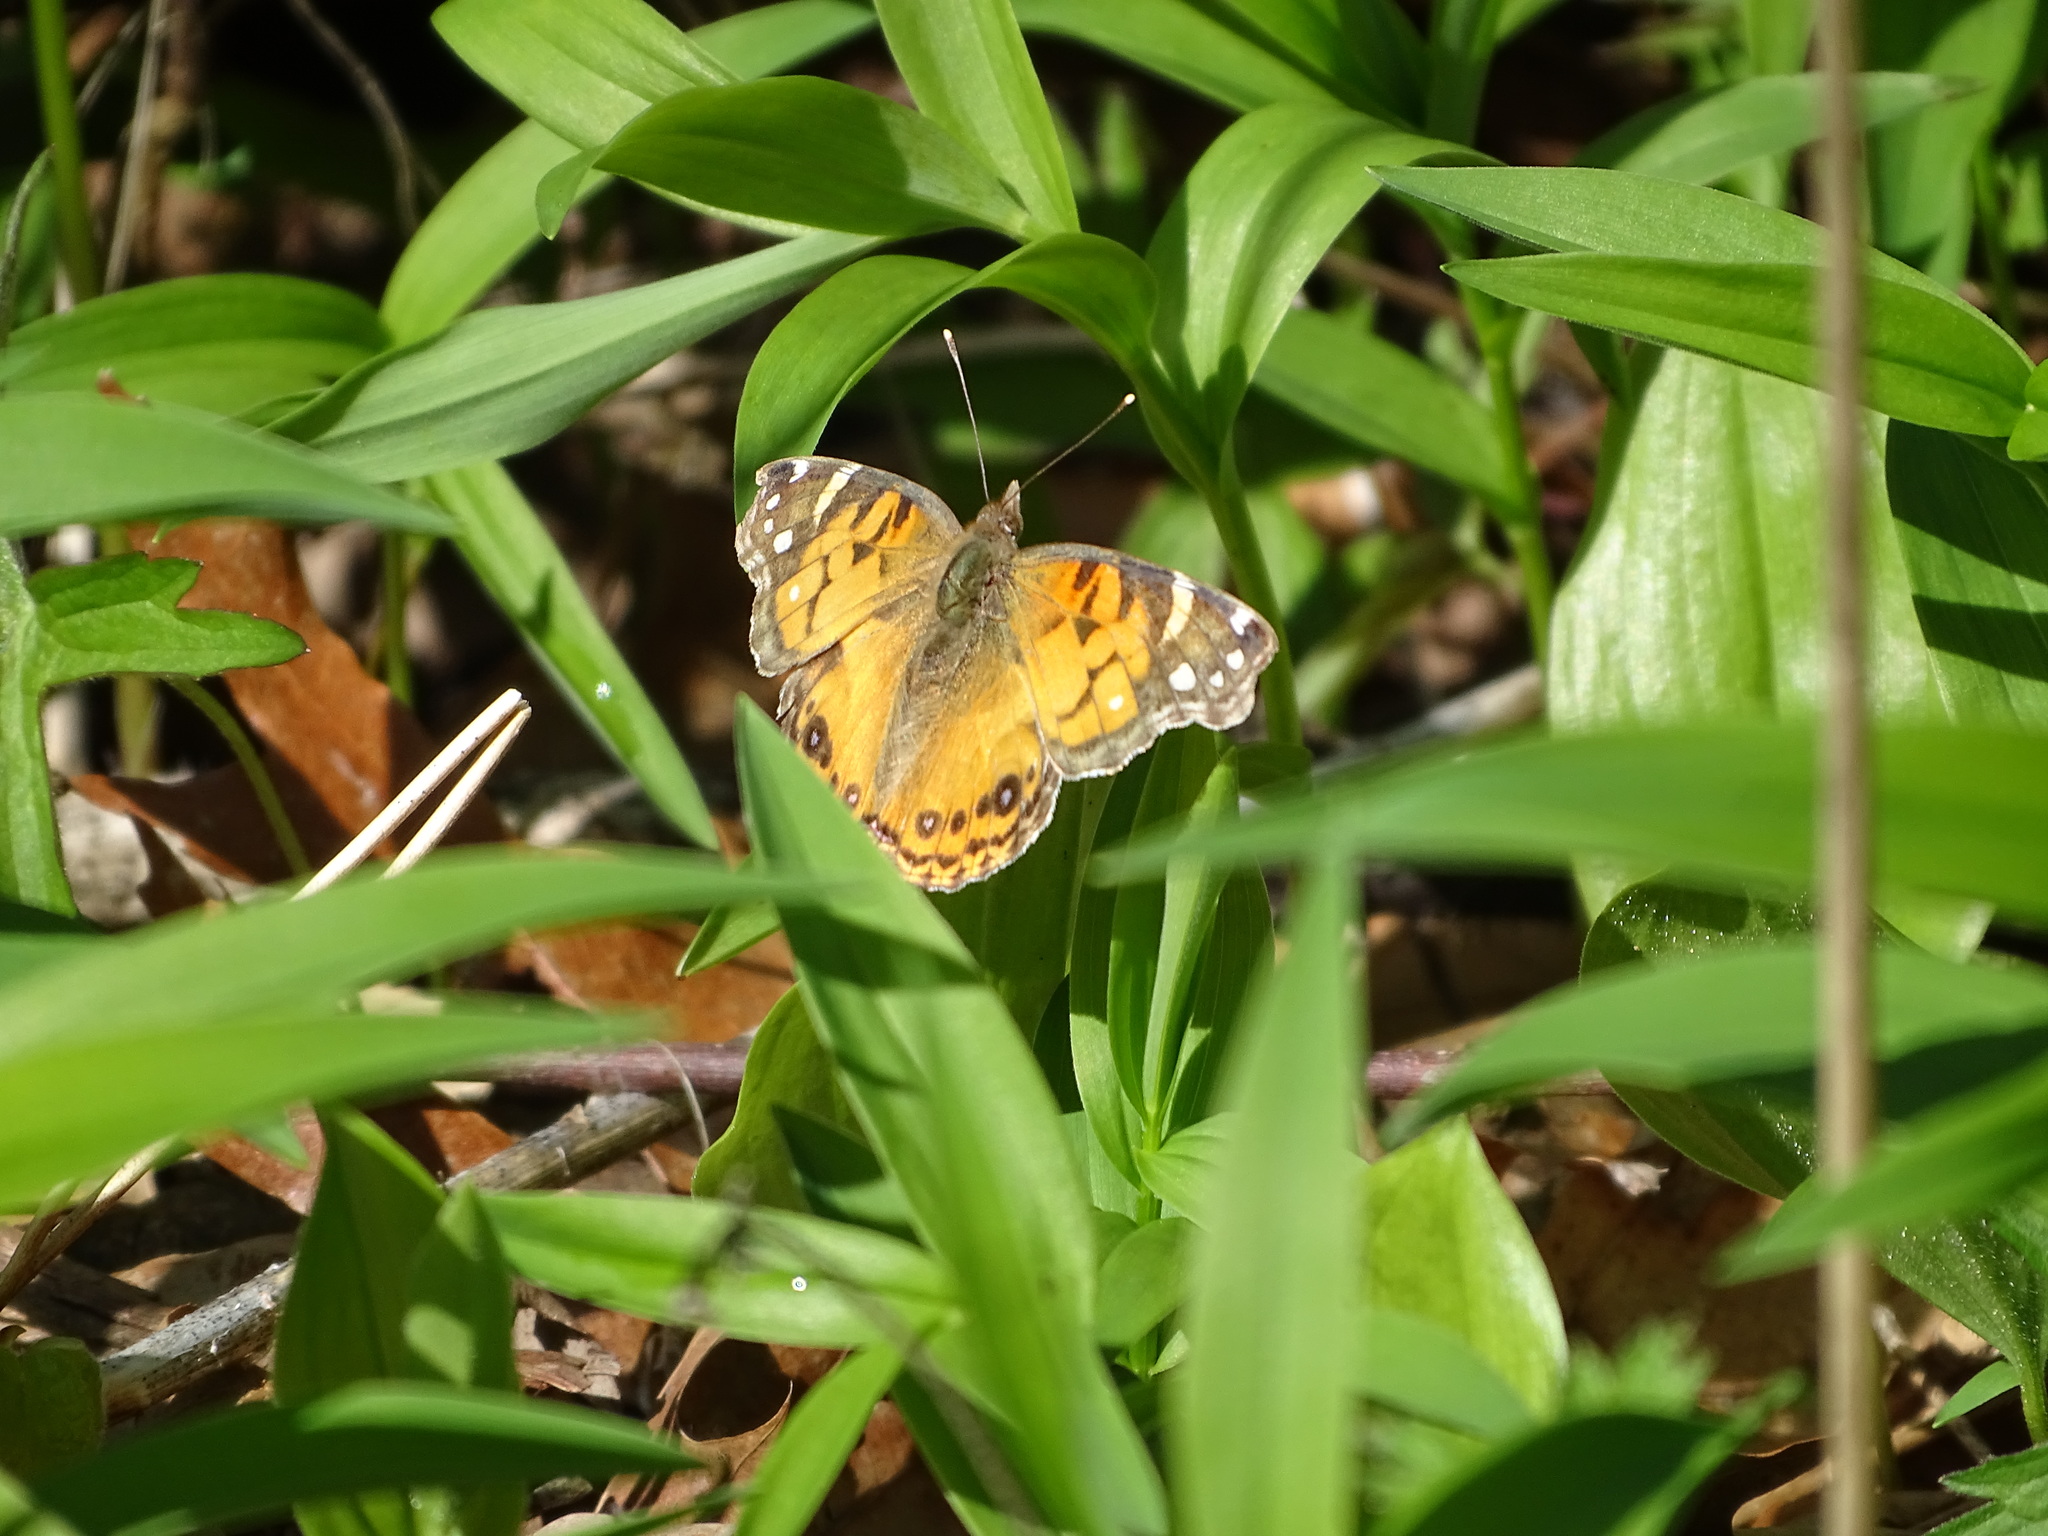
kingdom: Animalia
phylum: Arthropoda
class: Insecta
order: Lepidoptera
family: Nymphalidae
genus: Vanessa
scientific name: Vanessa virginiensis
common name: American lady
